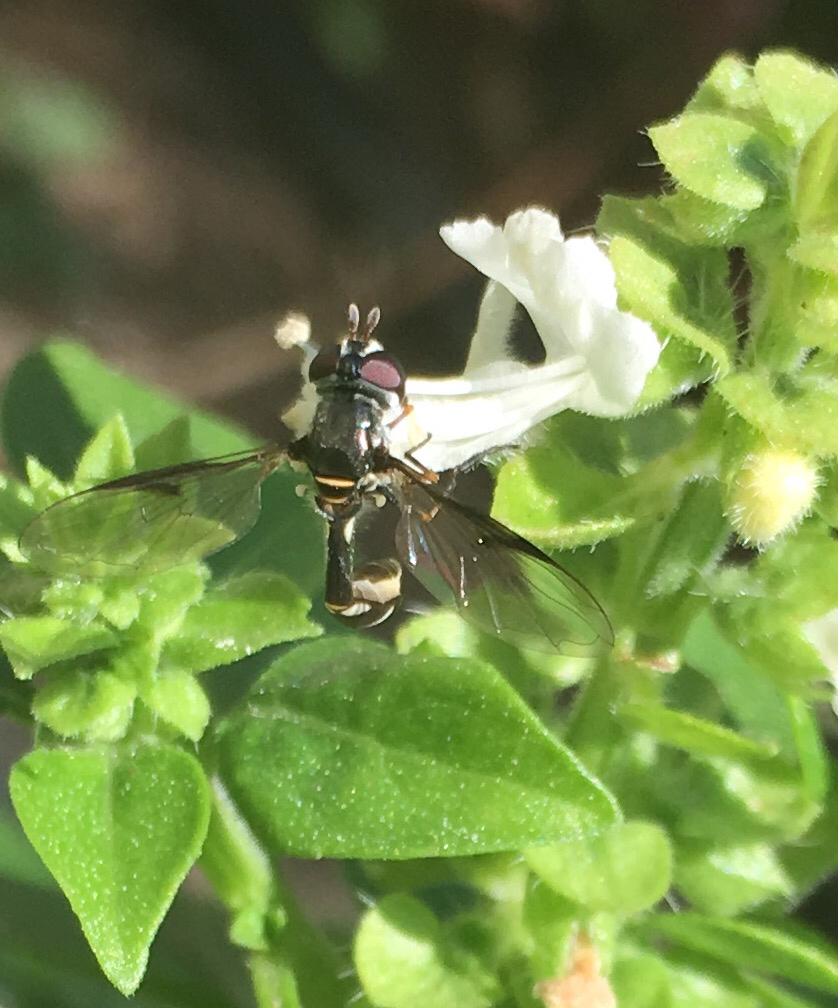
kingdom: Animalia
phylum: Arthropoda
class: Insecta
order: Diptera
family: Syrphidae
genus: Dioprosopa
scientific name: Dioprosopa clavatus
